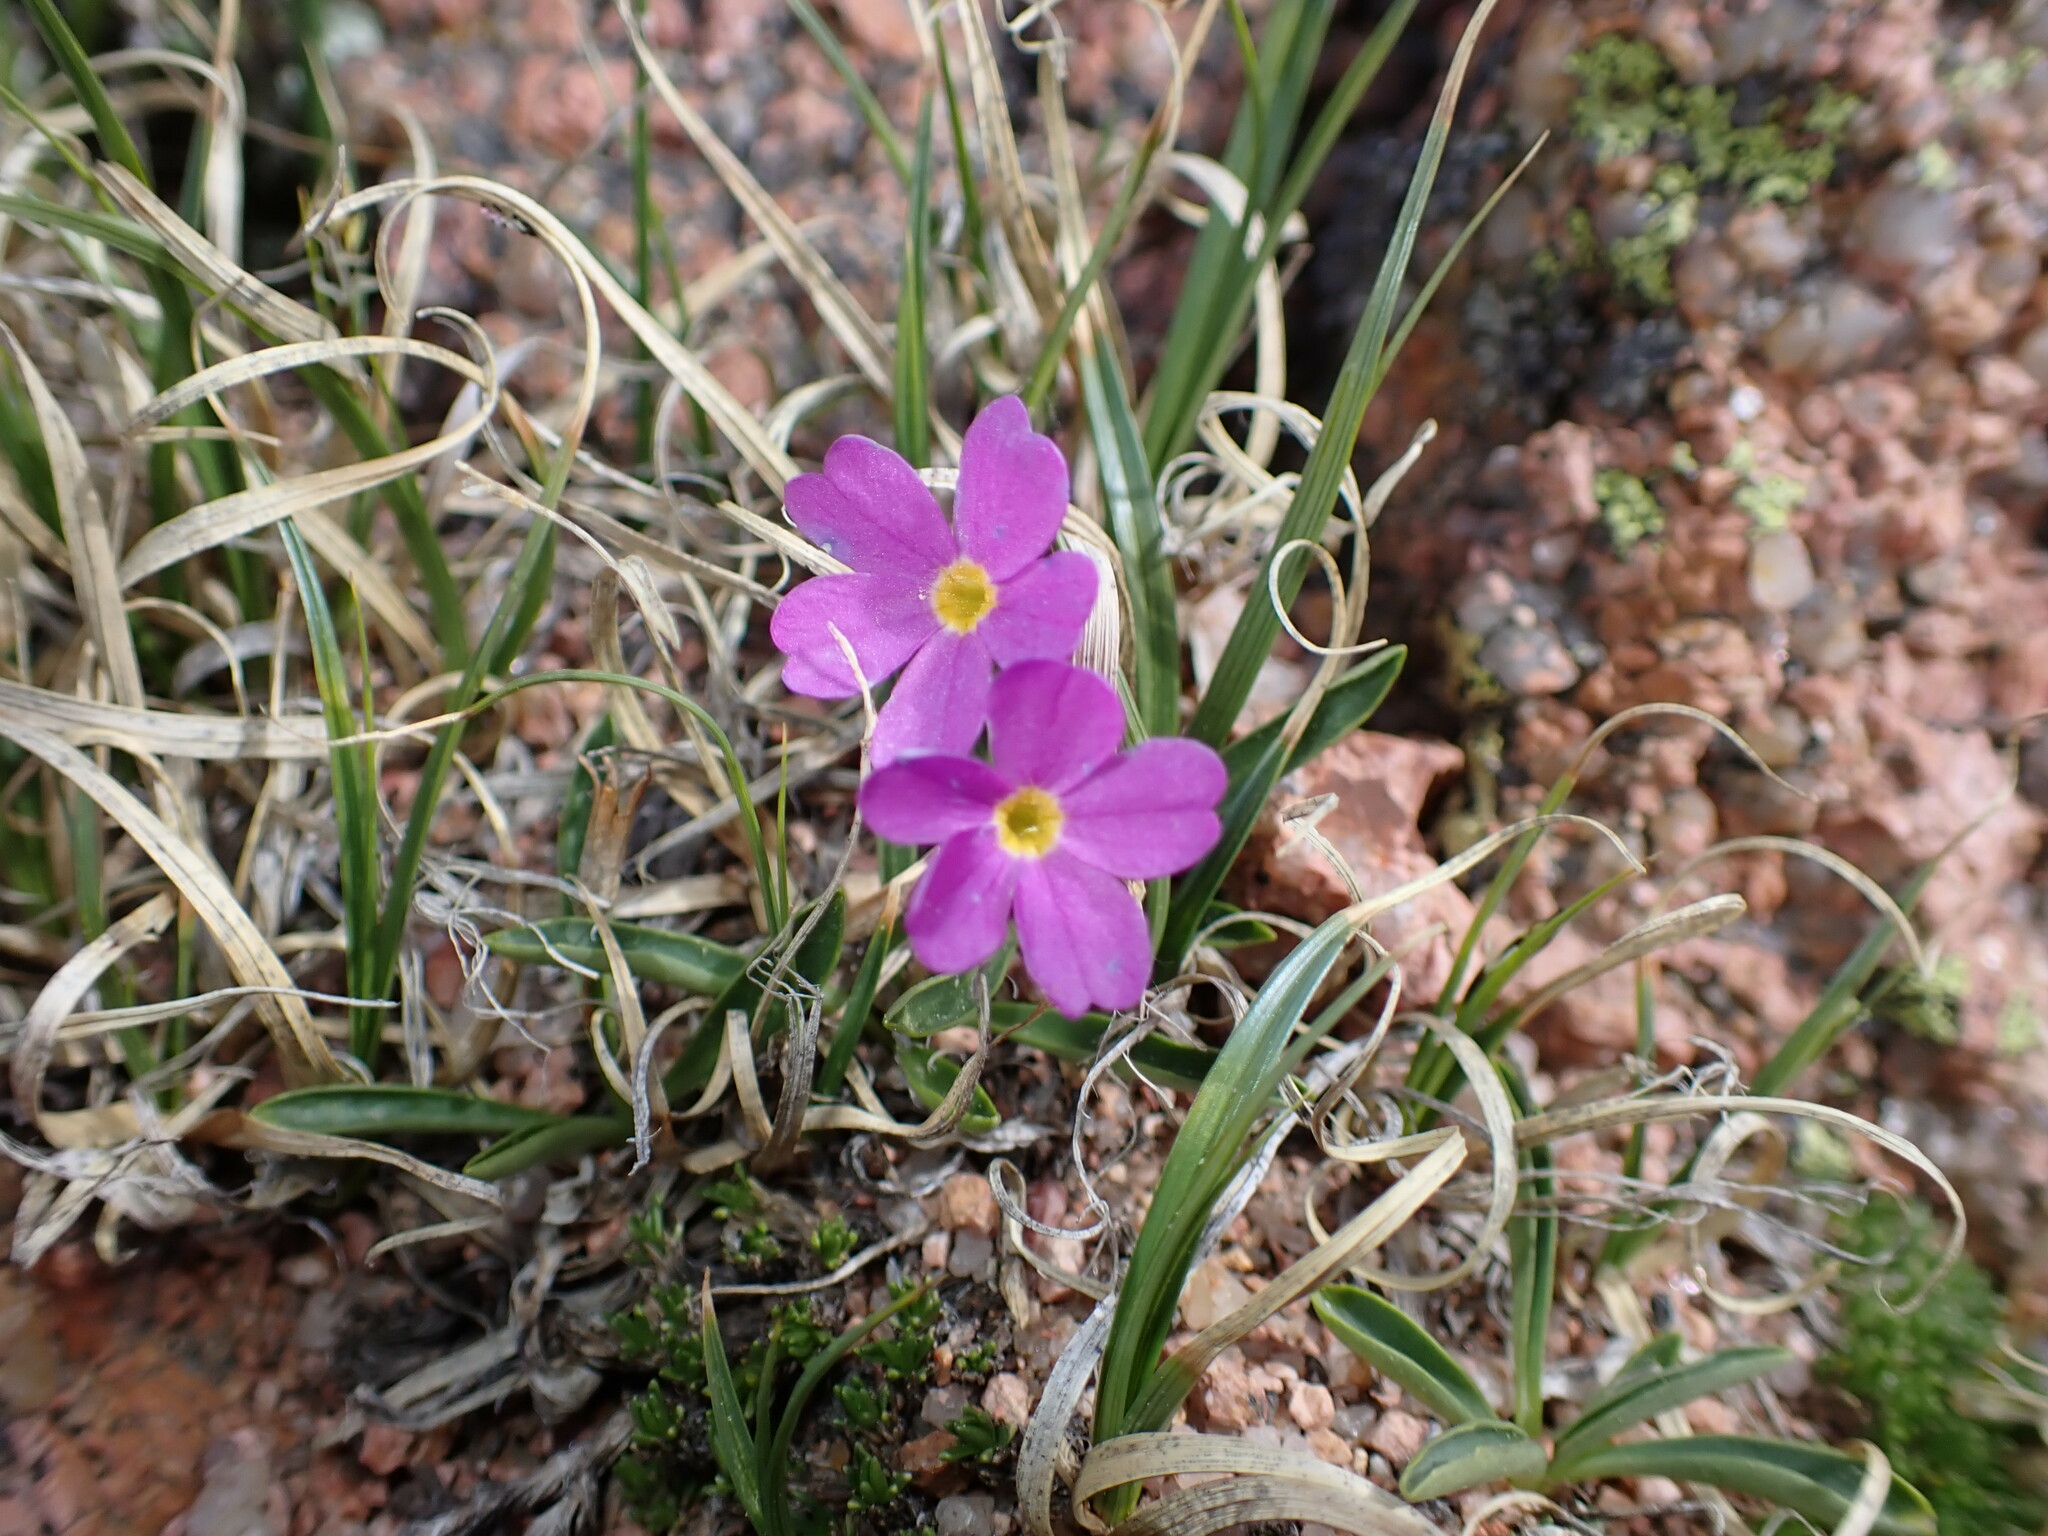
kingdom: Plantae
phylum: Tracheophyta
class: Magnoliopsida
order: Ericales
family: Primulaceae
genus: Primula
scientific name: Primula angustifolia
